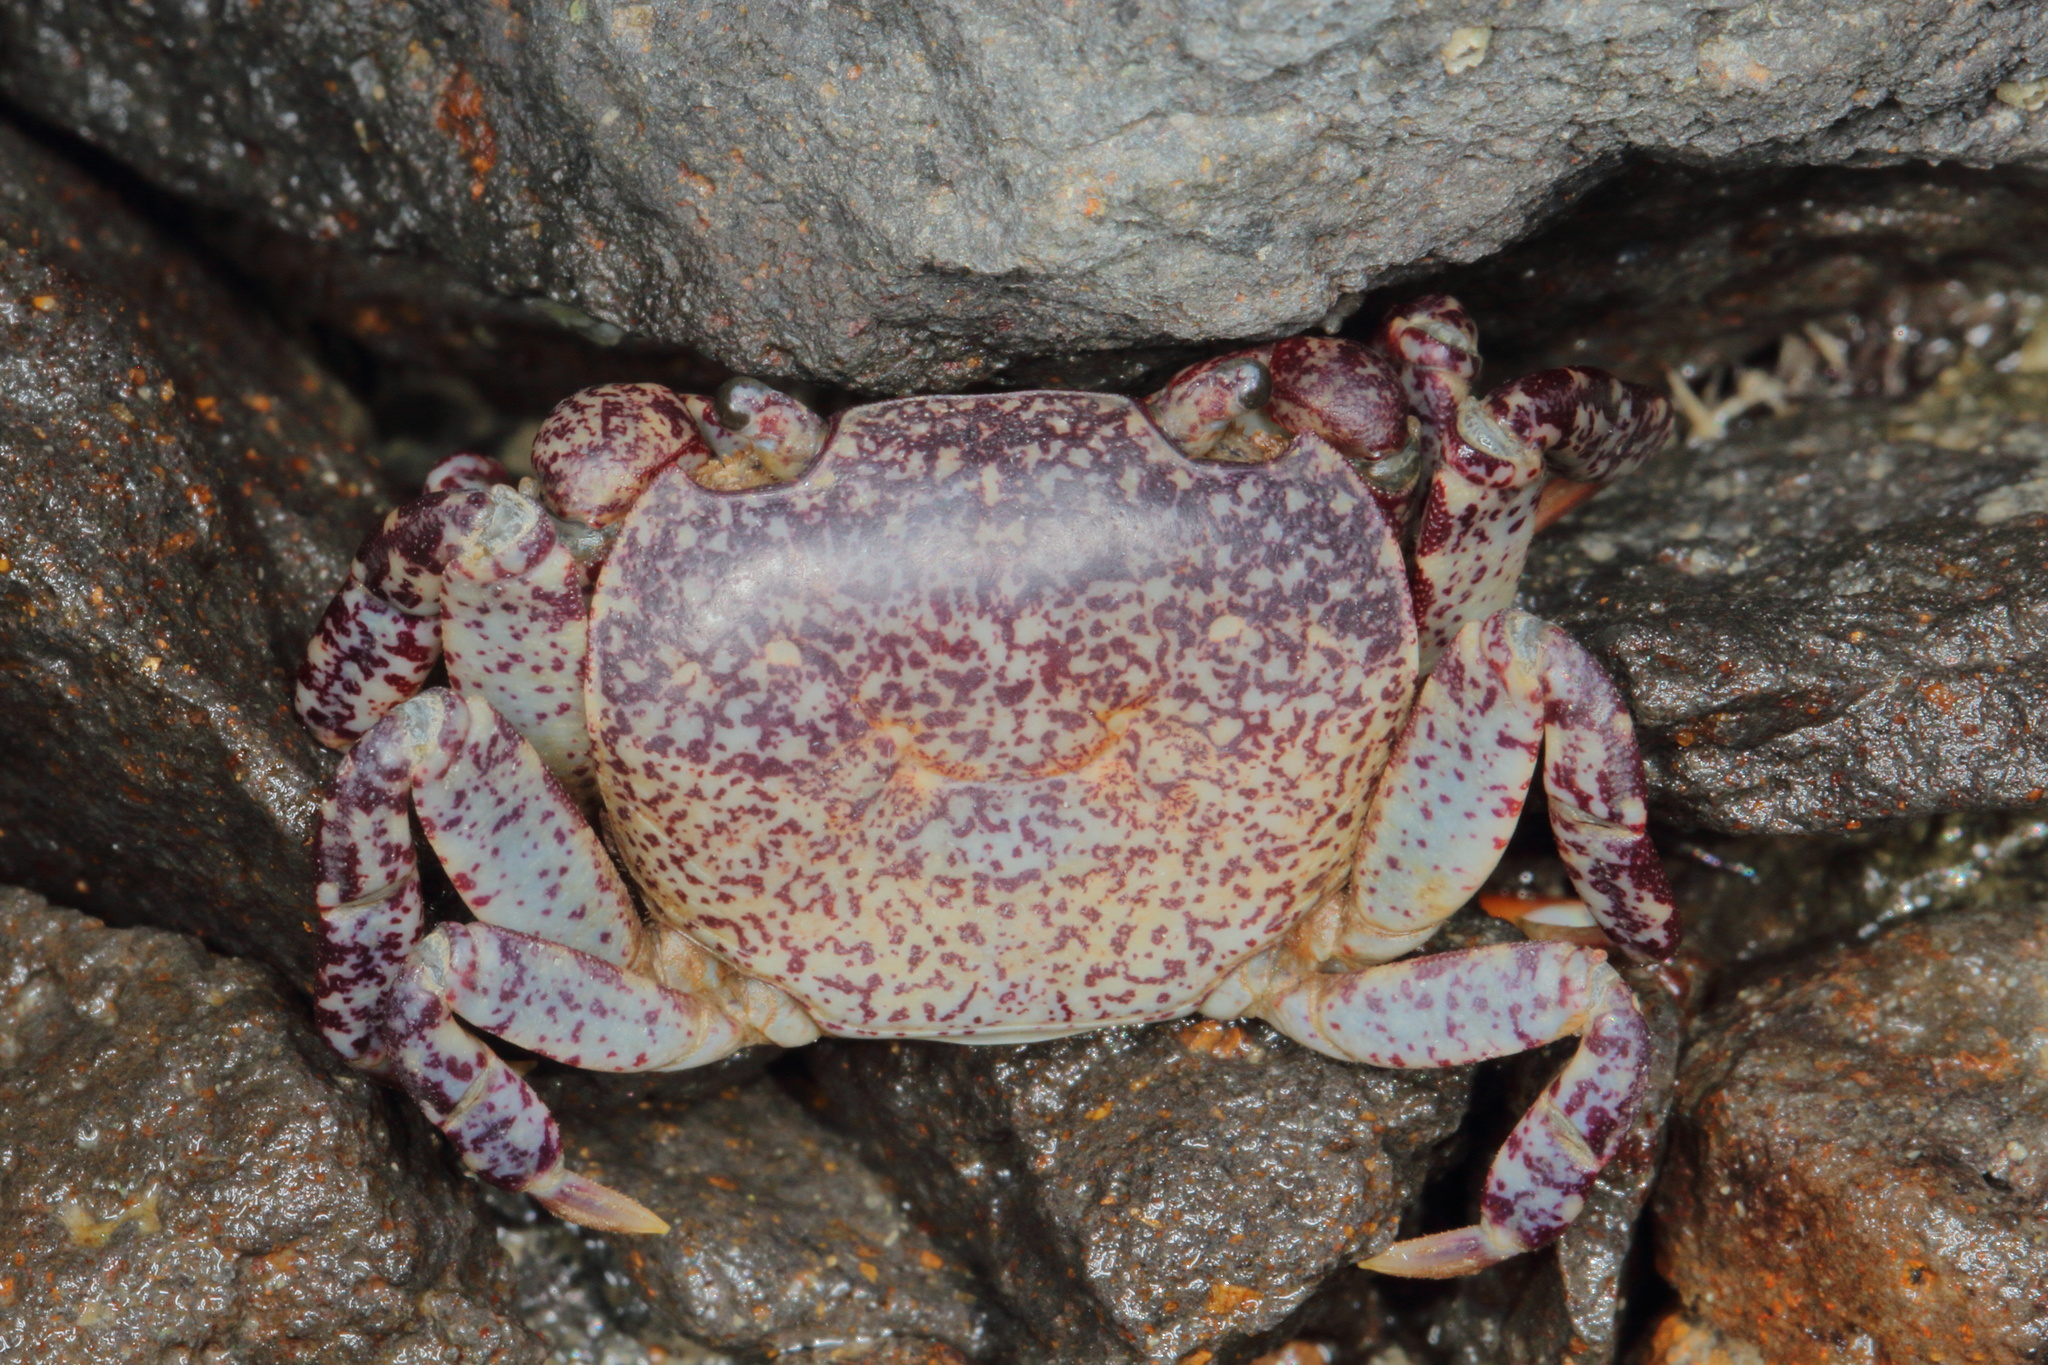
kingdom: Animalia
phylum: Arthropoda
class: Malacostraca
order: Decapoda
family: Varunidae
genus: Cyclograpsus
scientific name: Cyclograpsus lavauxi
